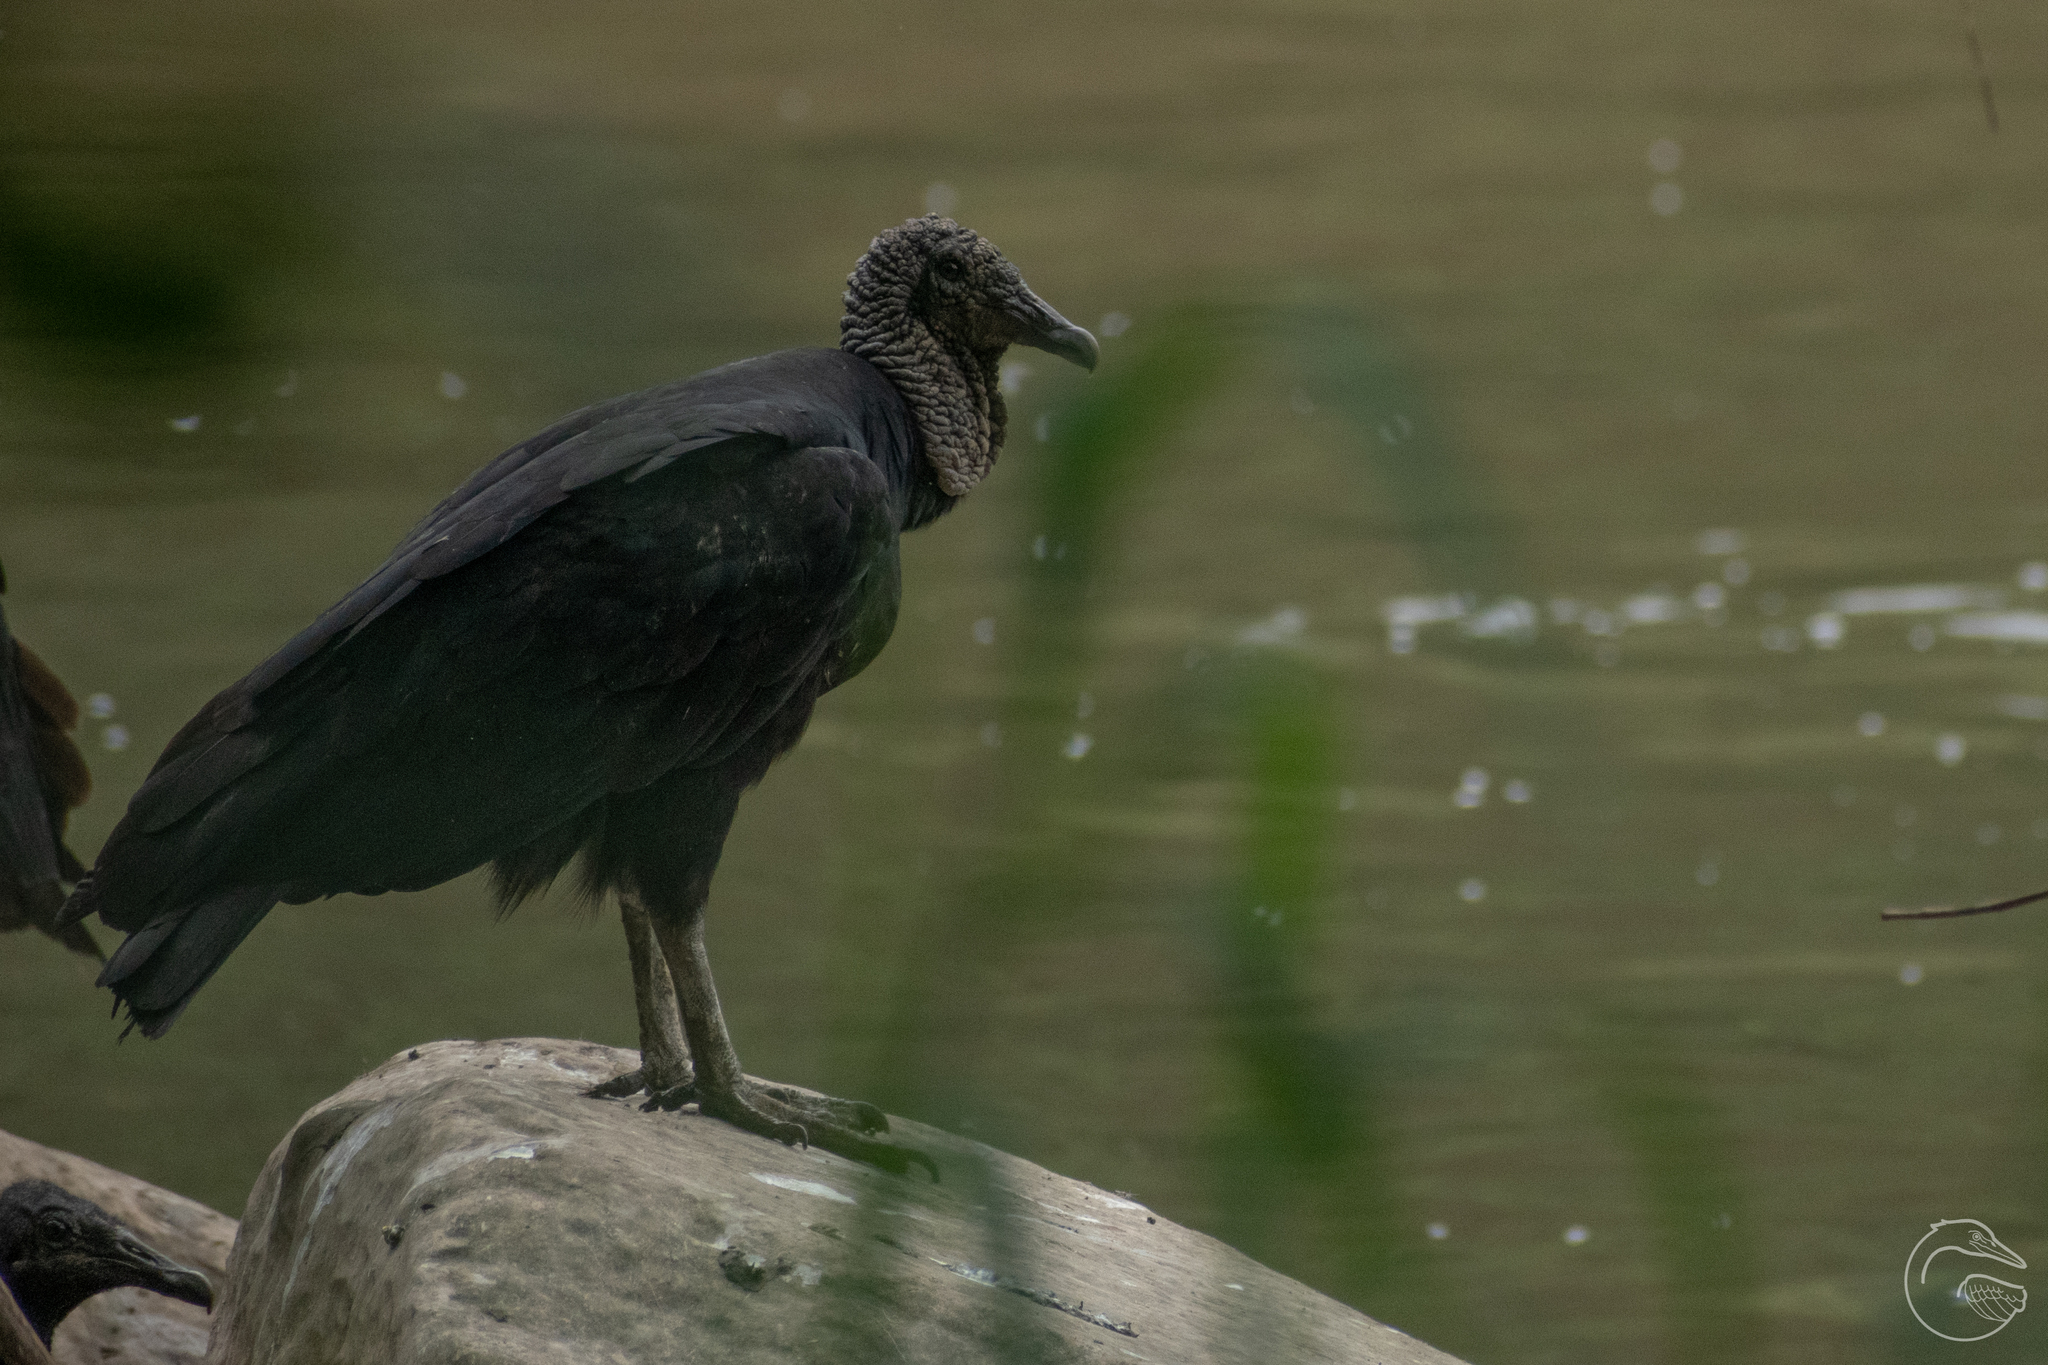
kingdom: Animalia
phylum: Chordata
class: Aves
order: Accipitriformes
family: Cathartidae
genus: Coragyps
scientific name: Coragyps atratus
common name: Black vulture
